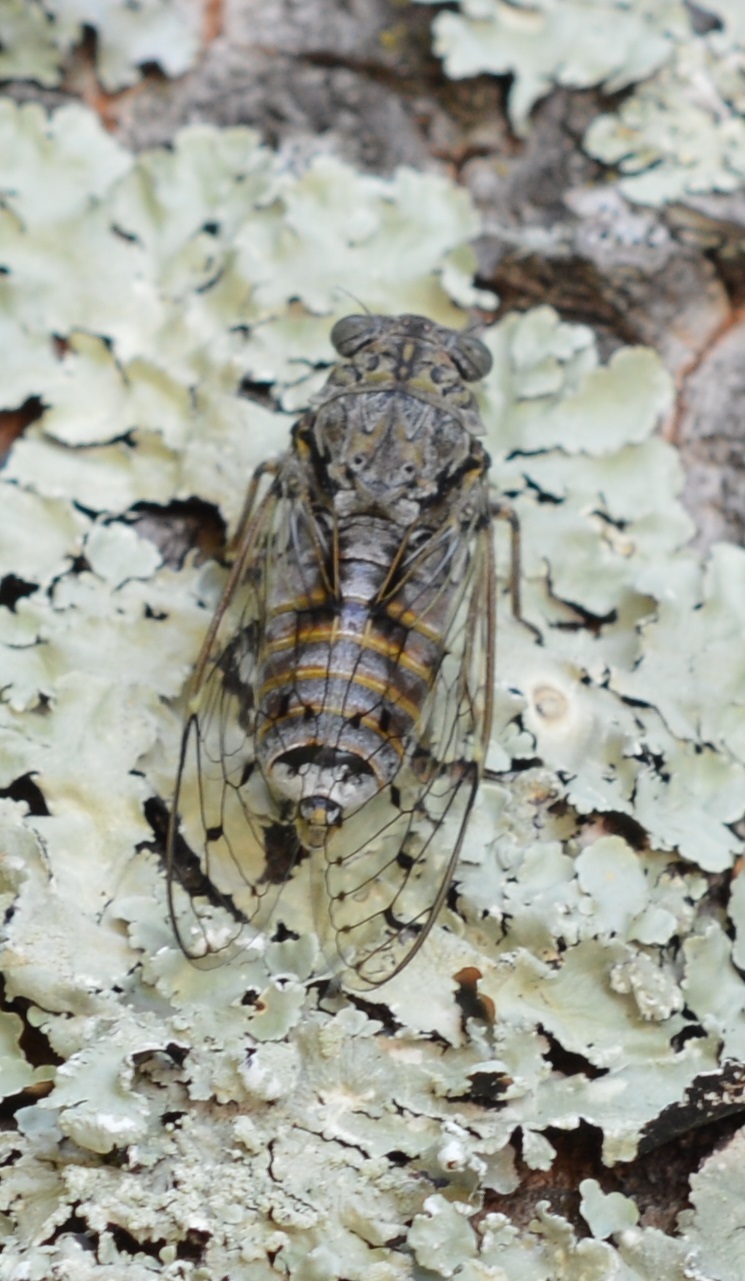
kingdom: Animalia
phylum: Arthropoda
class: Insecta
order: Hemiptera
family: Cicadidae
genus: Cicada
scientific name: Cicada orni
